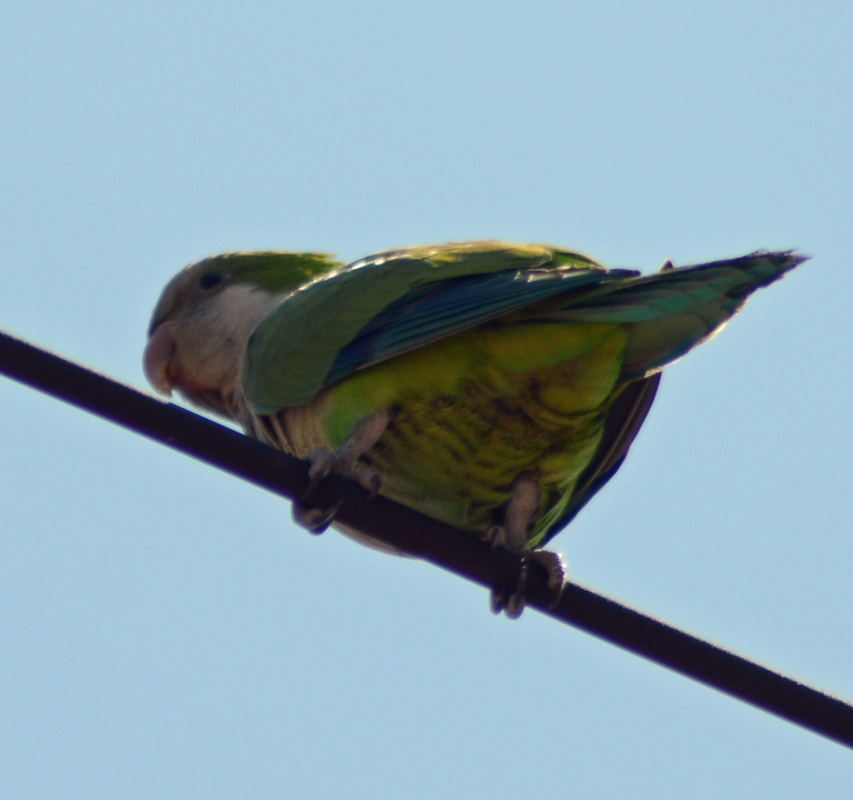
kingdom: Animalia
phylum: Chordata
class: Aves
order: Psittaciformes
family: Psittacidae
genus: Myiopsitta
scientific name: Myiopsitta monachus
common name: Monk parakeet
